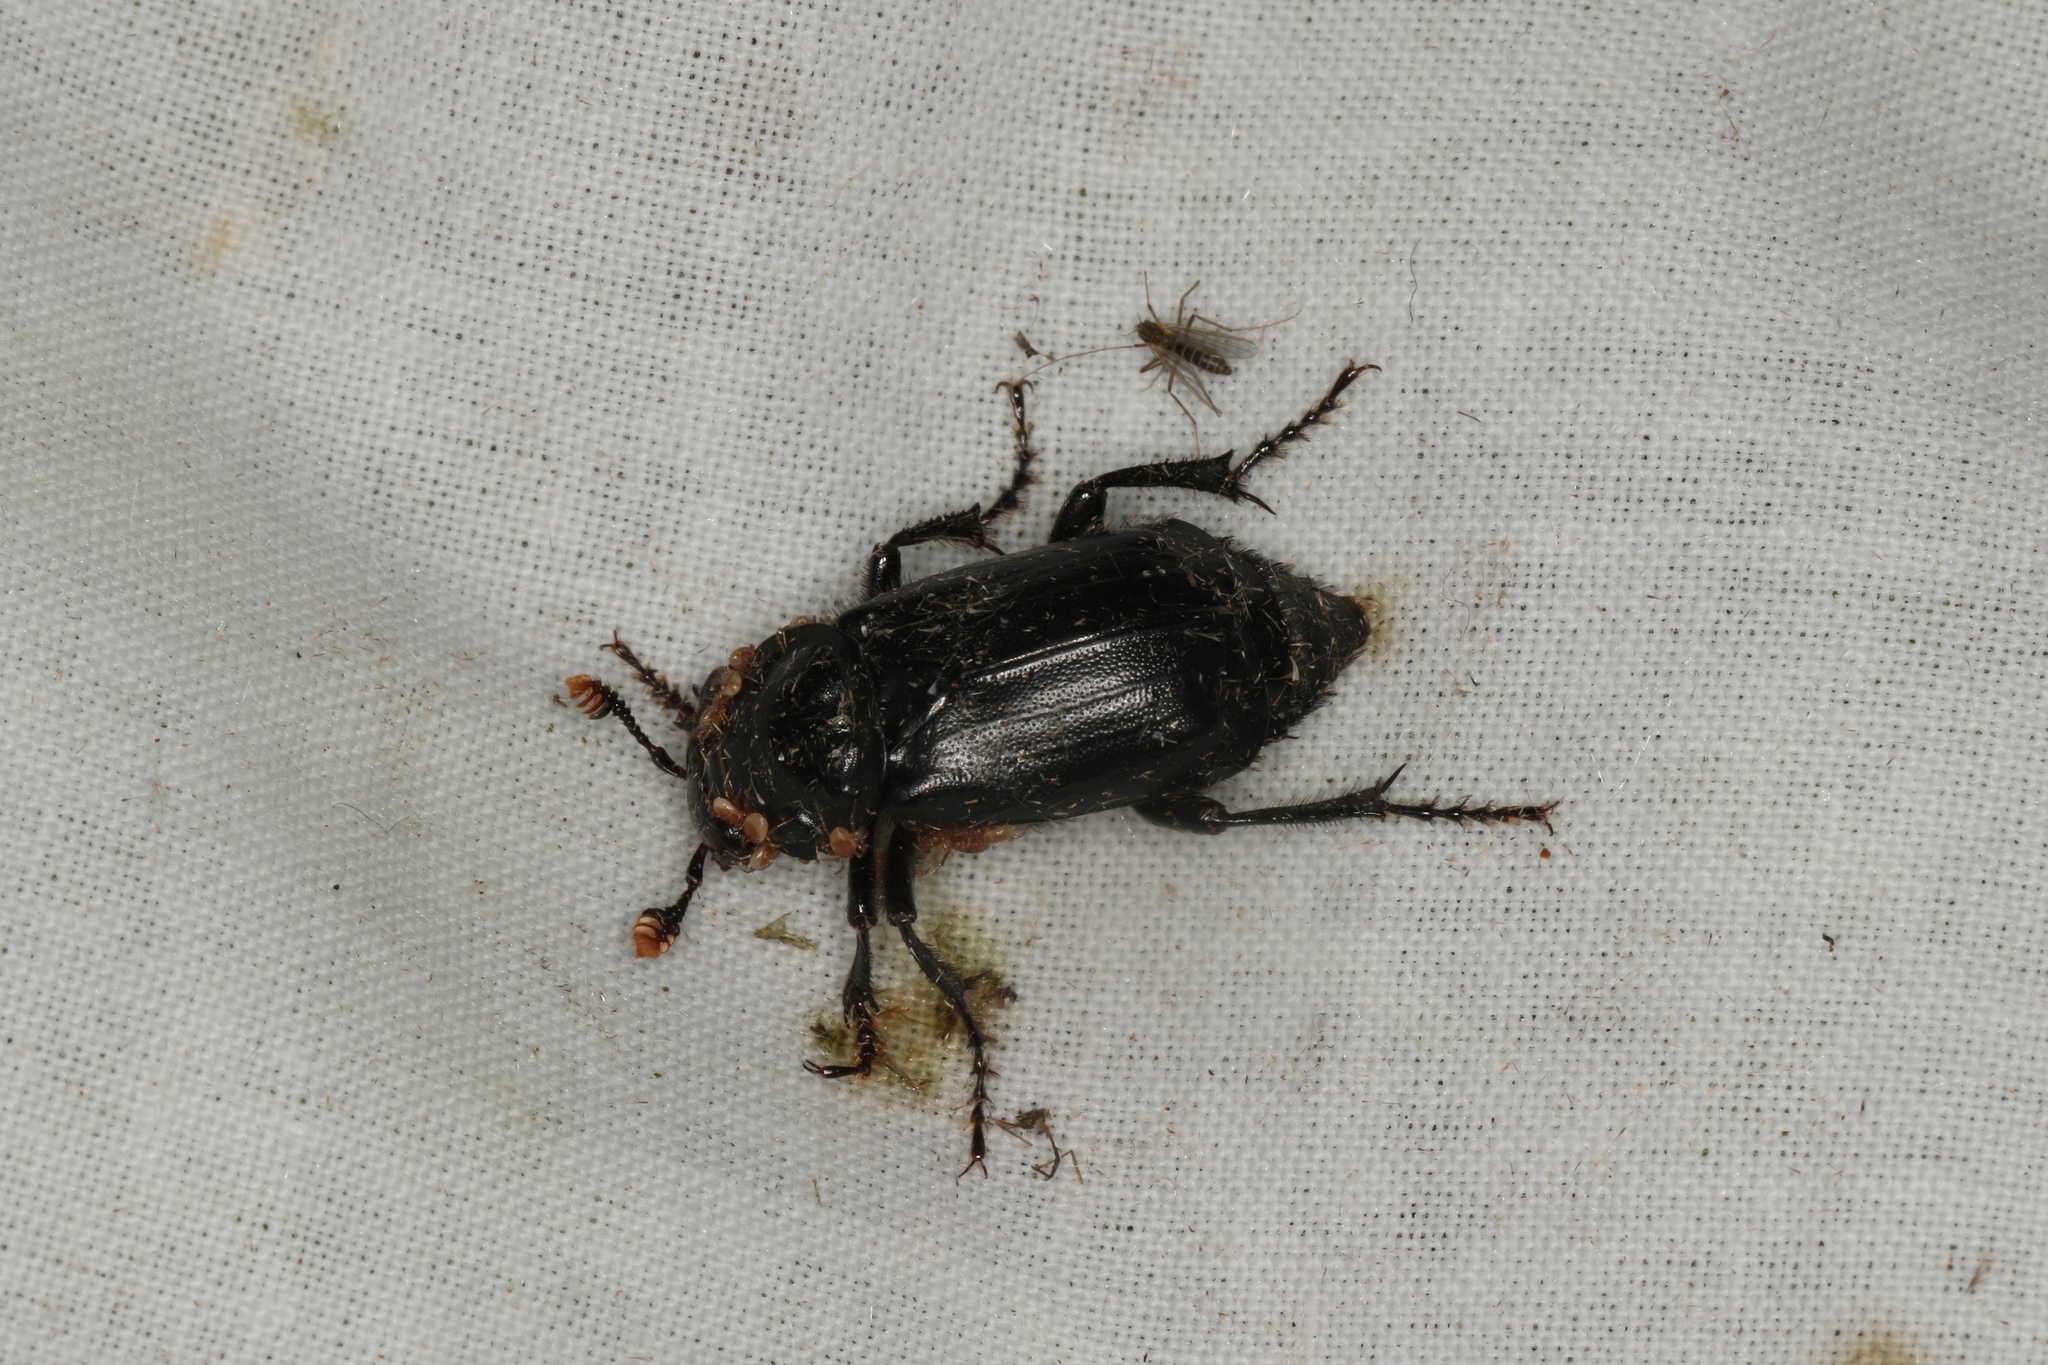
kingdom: Animalia
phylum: Arthropoda
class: Insecta
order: Coleoptera
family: Staphylinidae
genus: Nicrophorus
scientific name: Nicrophorus humator
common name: Black sexton beetle
